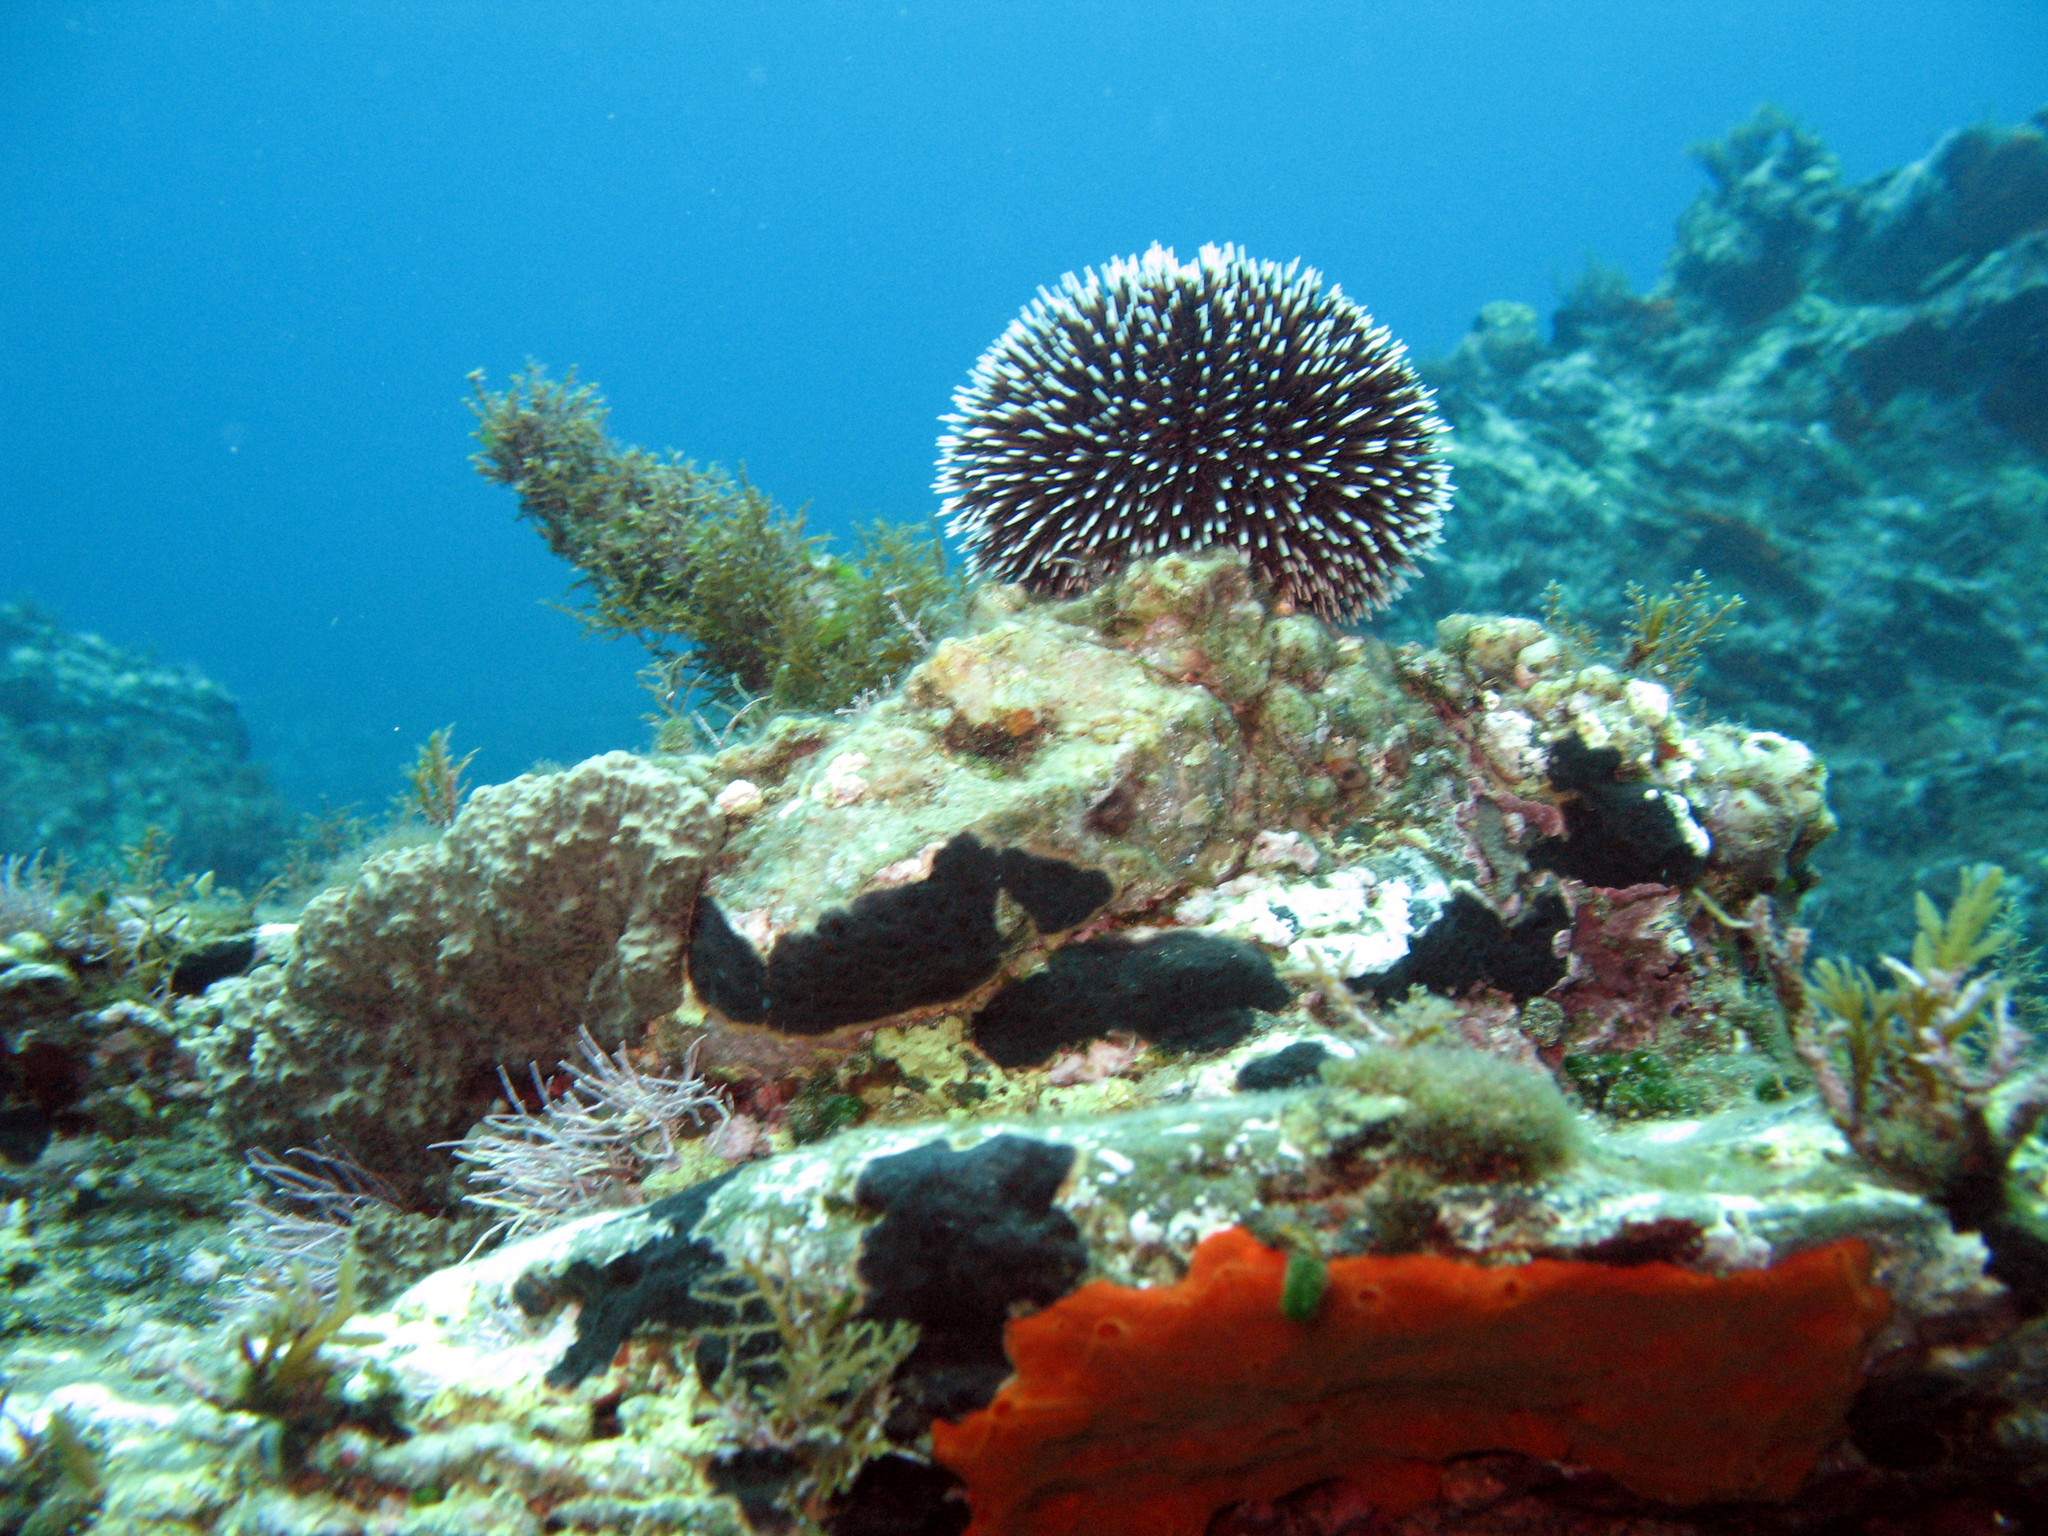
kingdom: Animalia
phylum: Echinodermata
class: Echinoidea
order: Camarodonta
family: Toxopneustidae
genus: Sphaerechinus
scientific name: Sphaerechinus granularis
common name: Violet sea urchin
